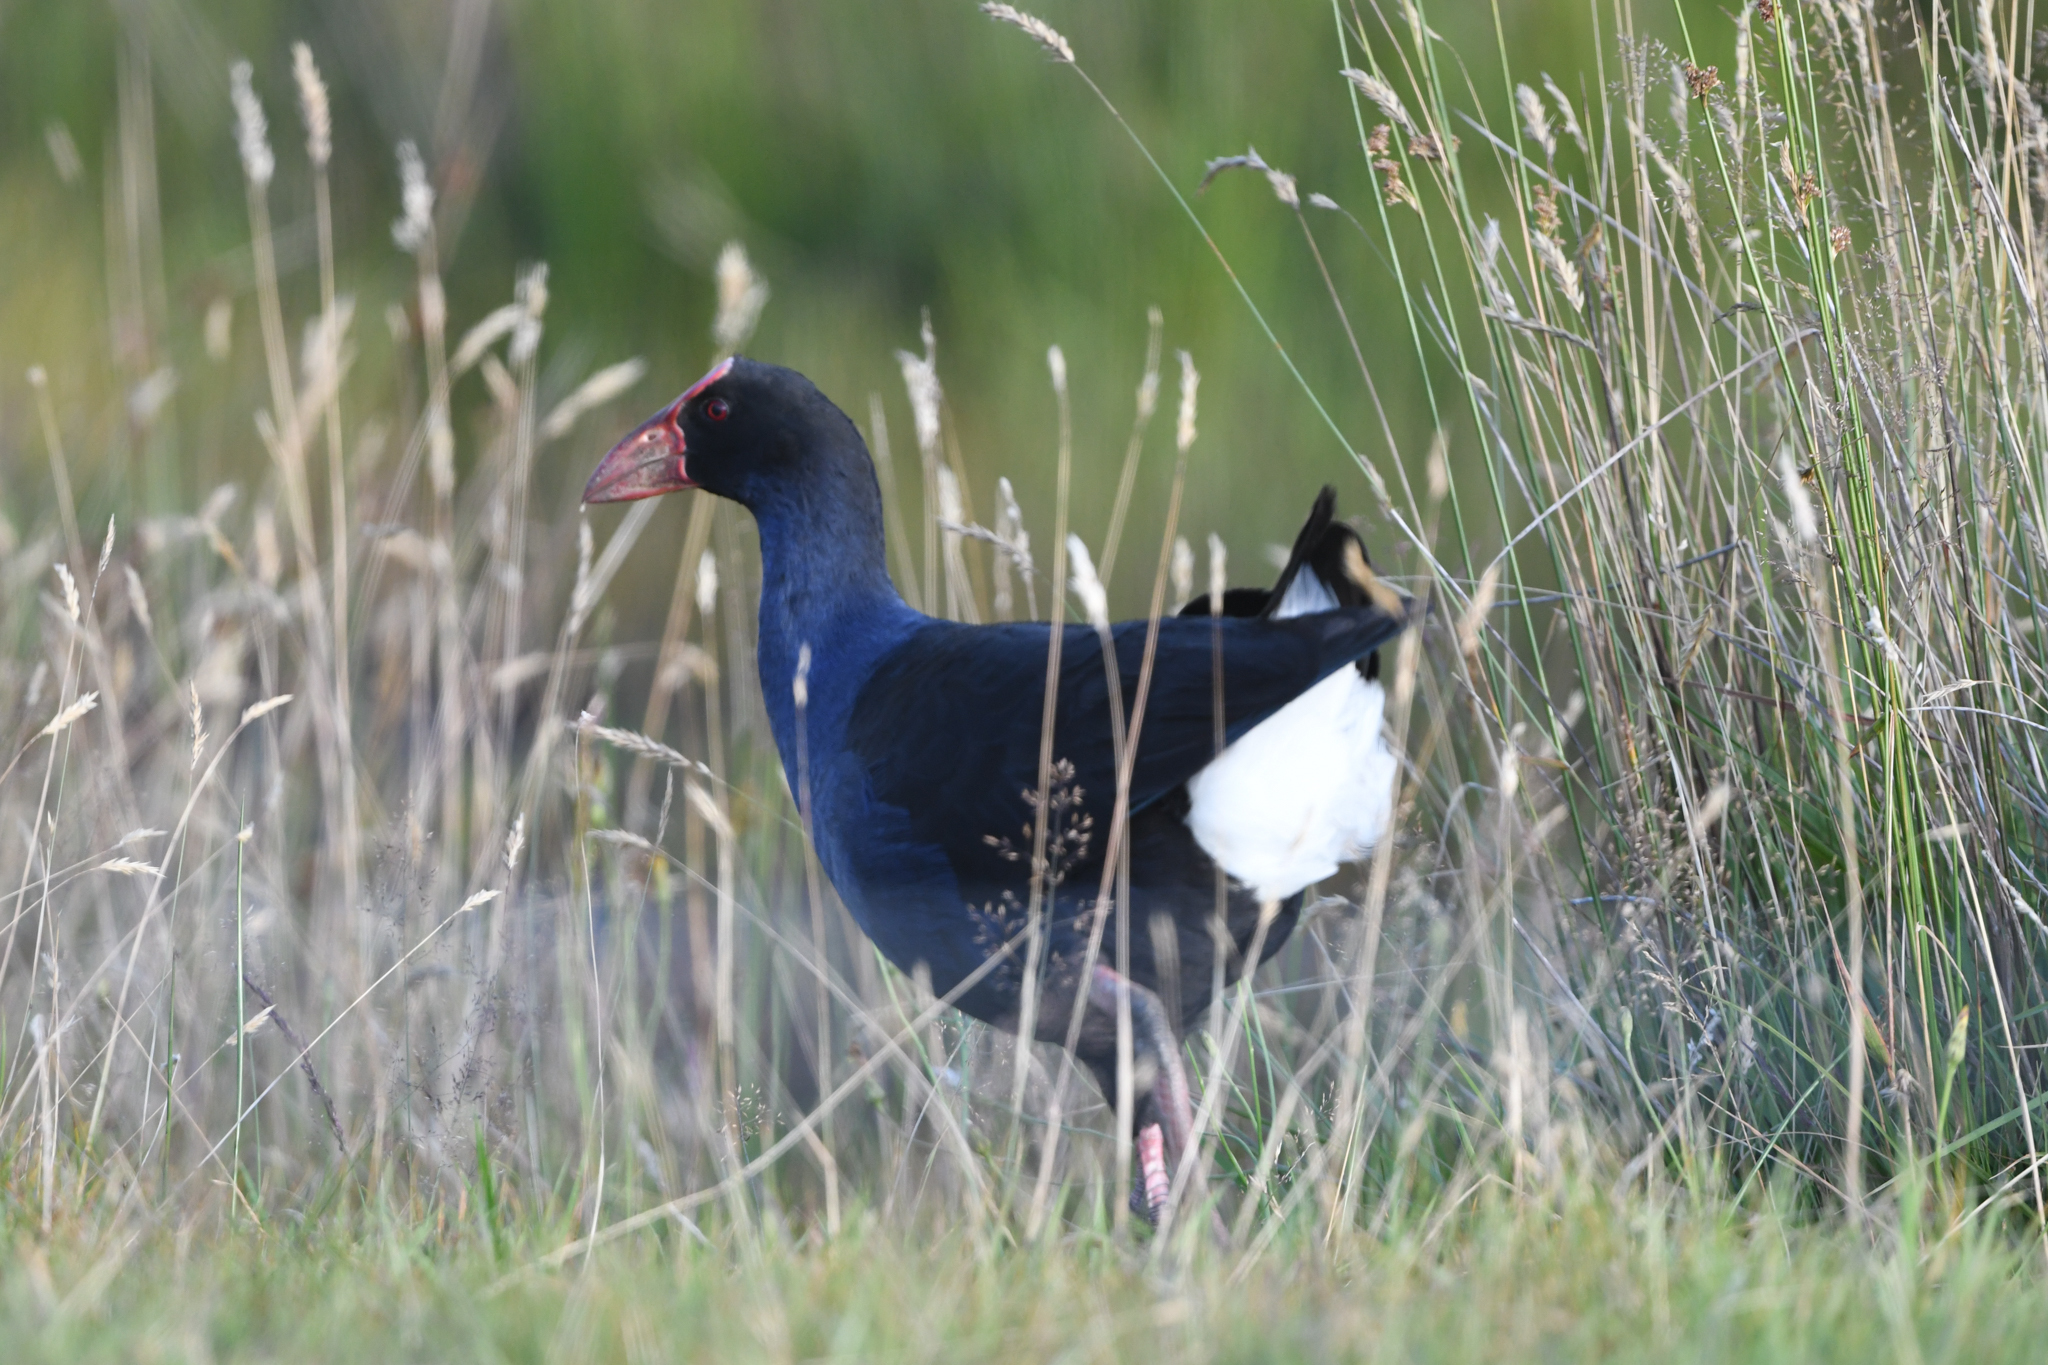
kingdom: Animalia
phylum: Chordata
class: Aves
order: Gruiformes
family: Rallidae
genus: Porphyrio
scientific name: Porphyrio melanotus
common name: Australasian swamphen
